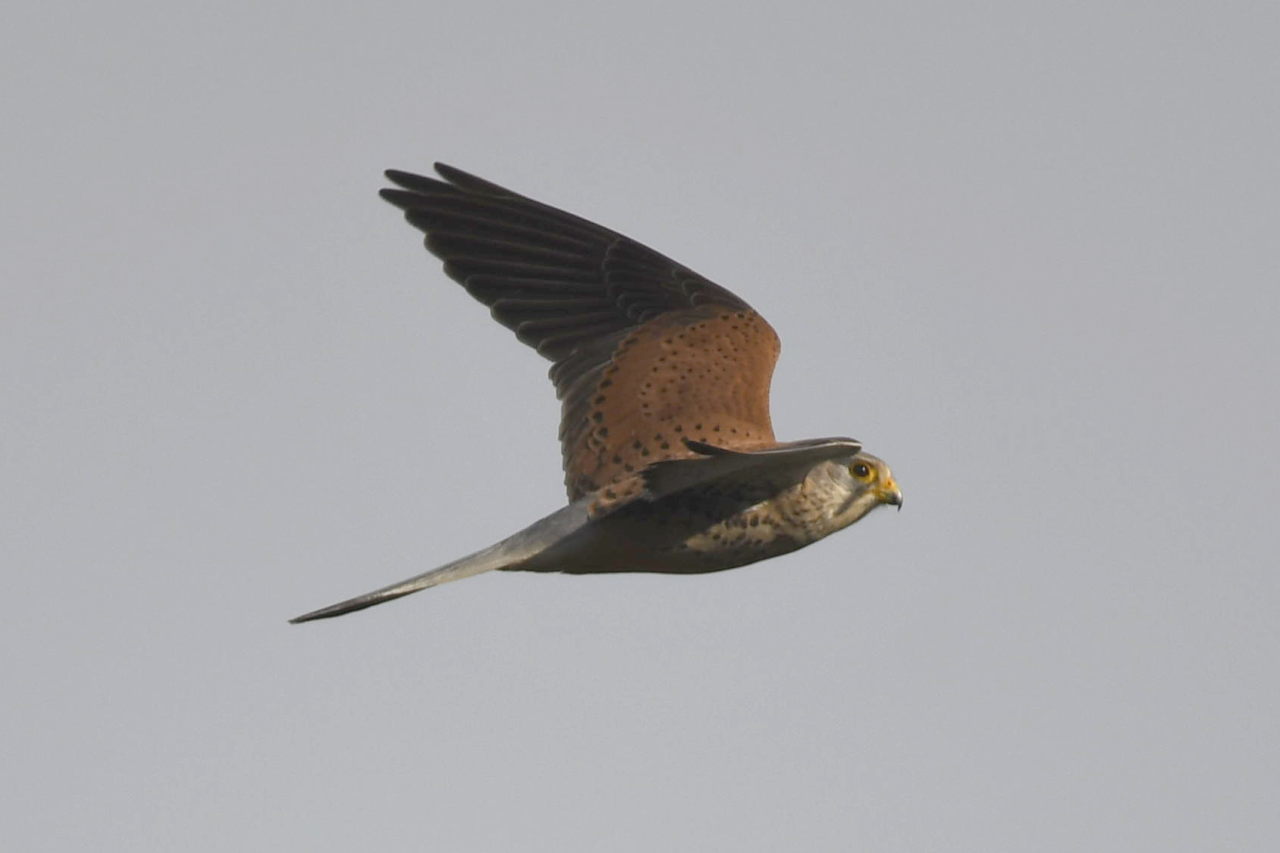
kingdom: Animalia
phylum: Chordata
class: Aves
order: Falconiformes
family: Falconidae
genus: Falco
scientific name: Falco tinnunculus
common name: Common kestrel
